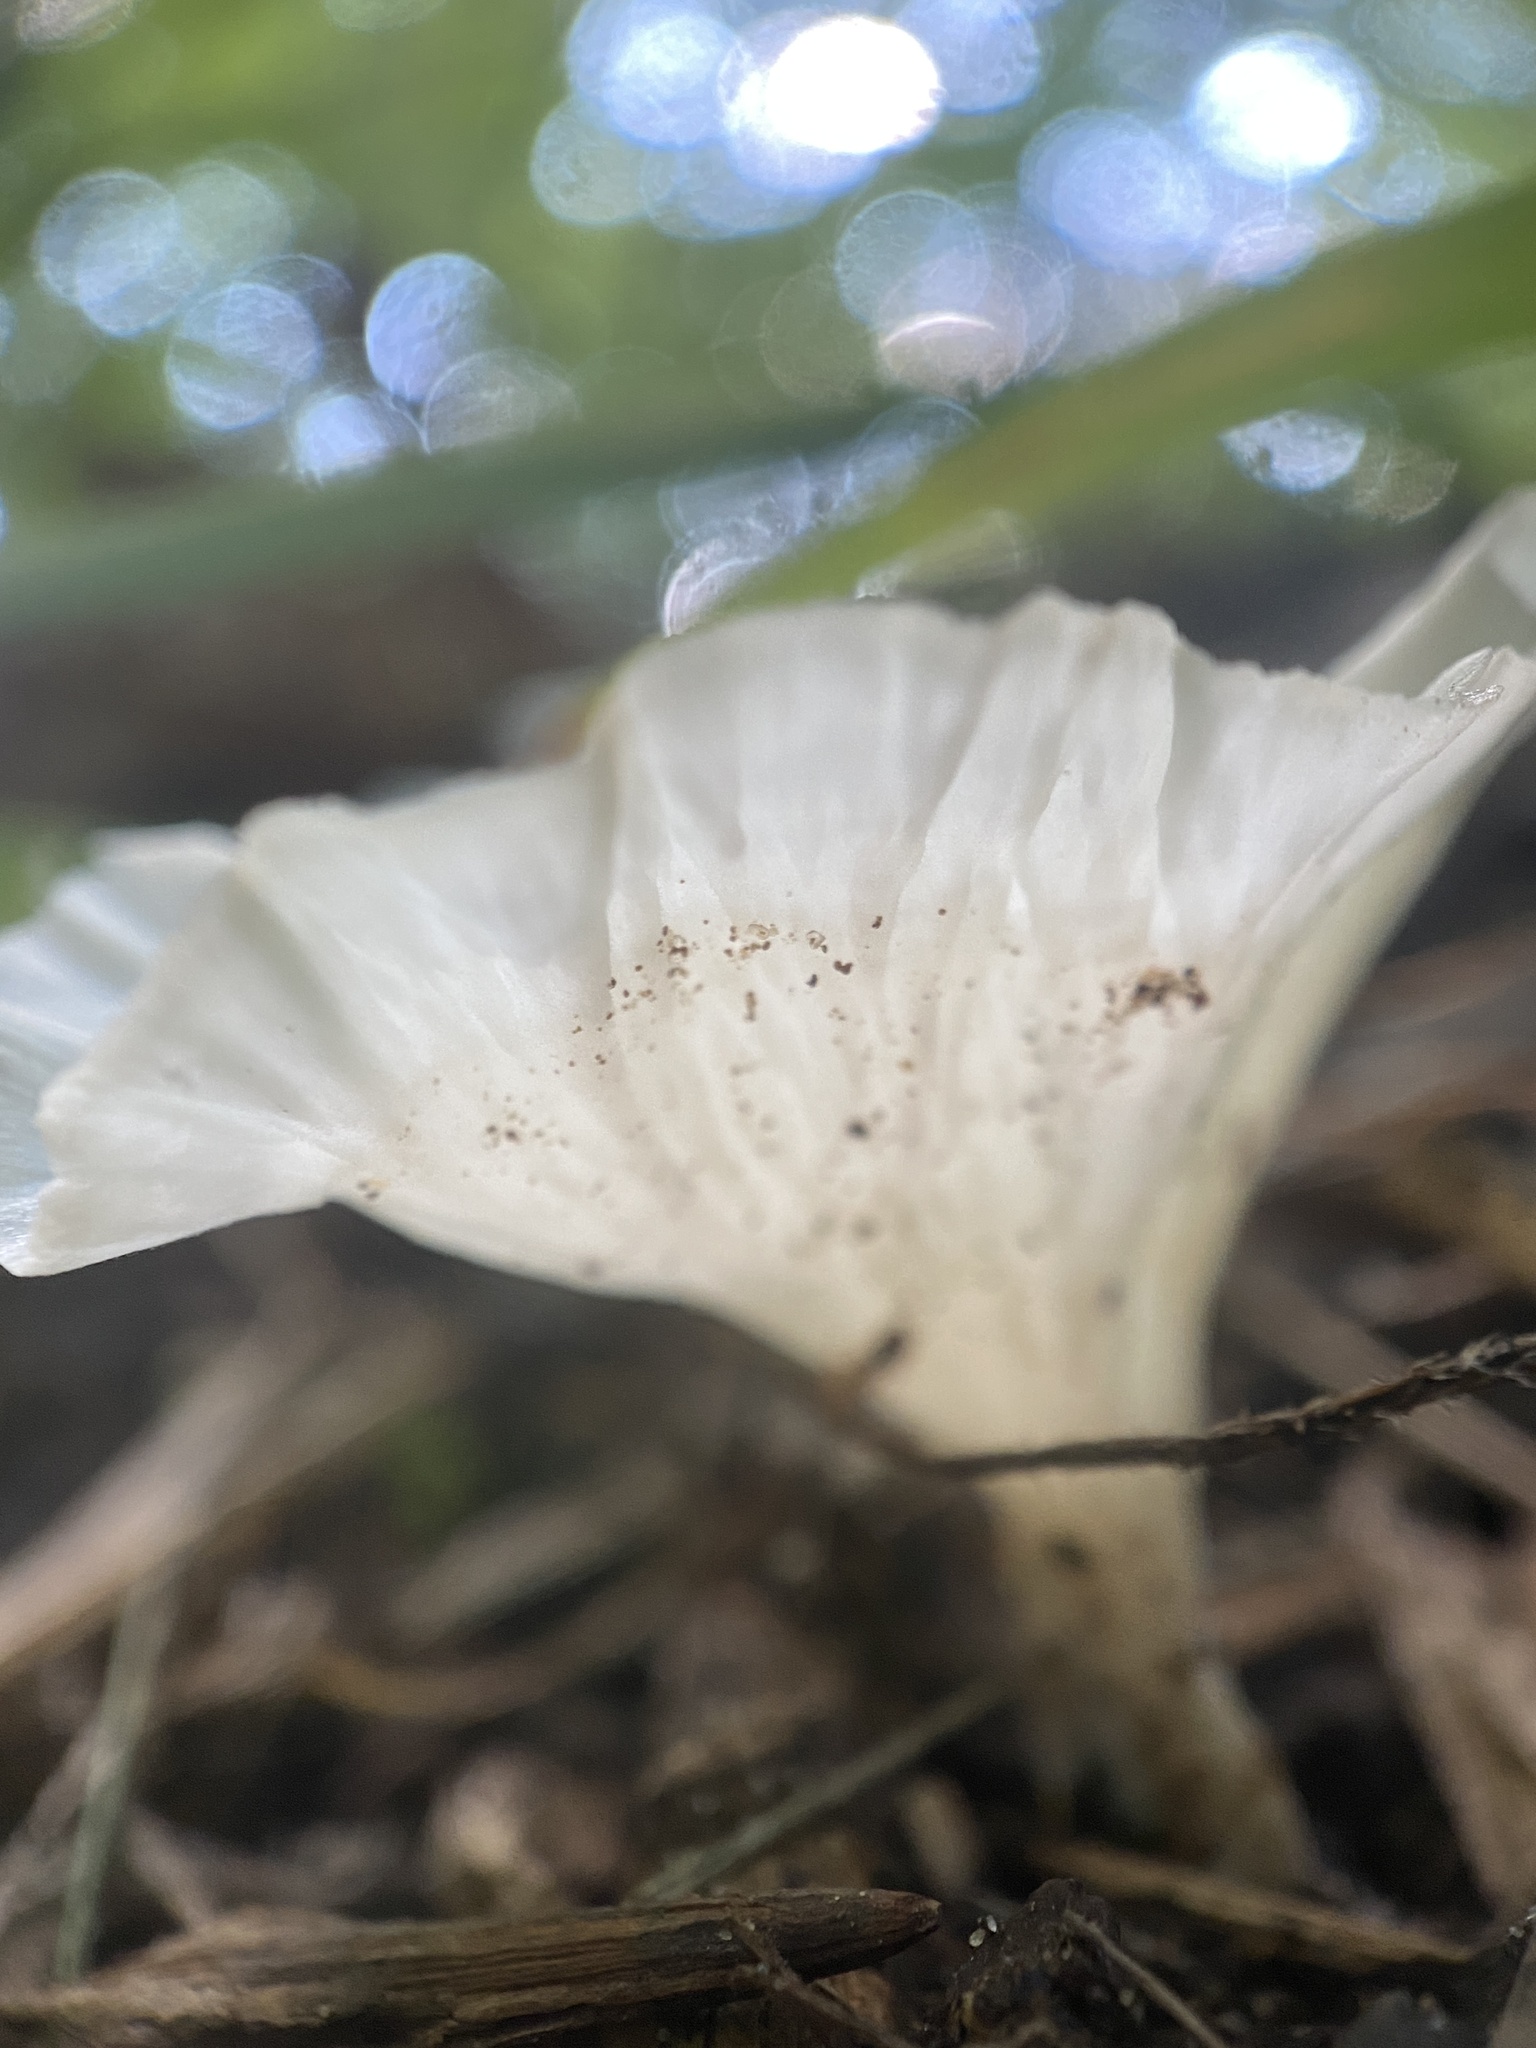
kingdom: Fungi
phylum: Basidiomycota
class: Agaricomycetes
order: Hymenochaetales
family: Rickenellaceae
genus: Cotylidia
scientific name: Cotylidia diaphana
